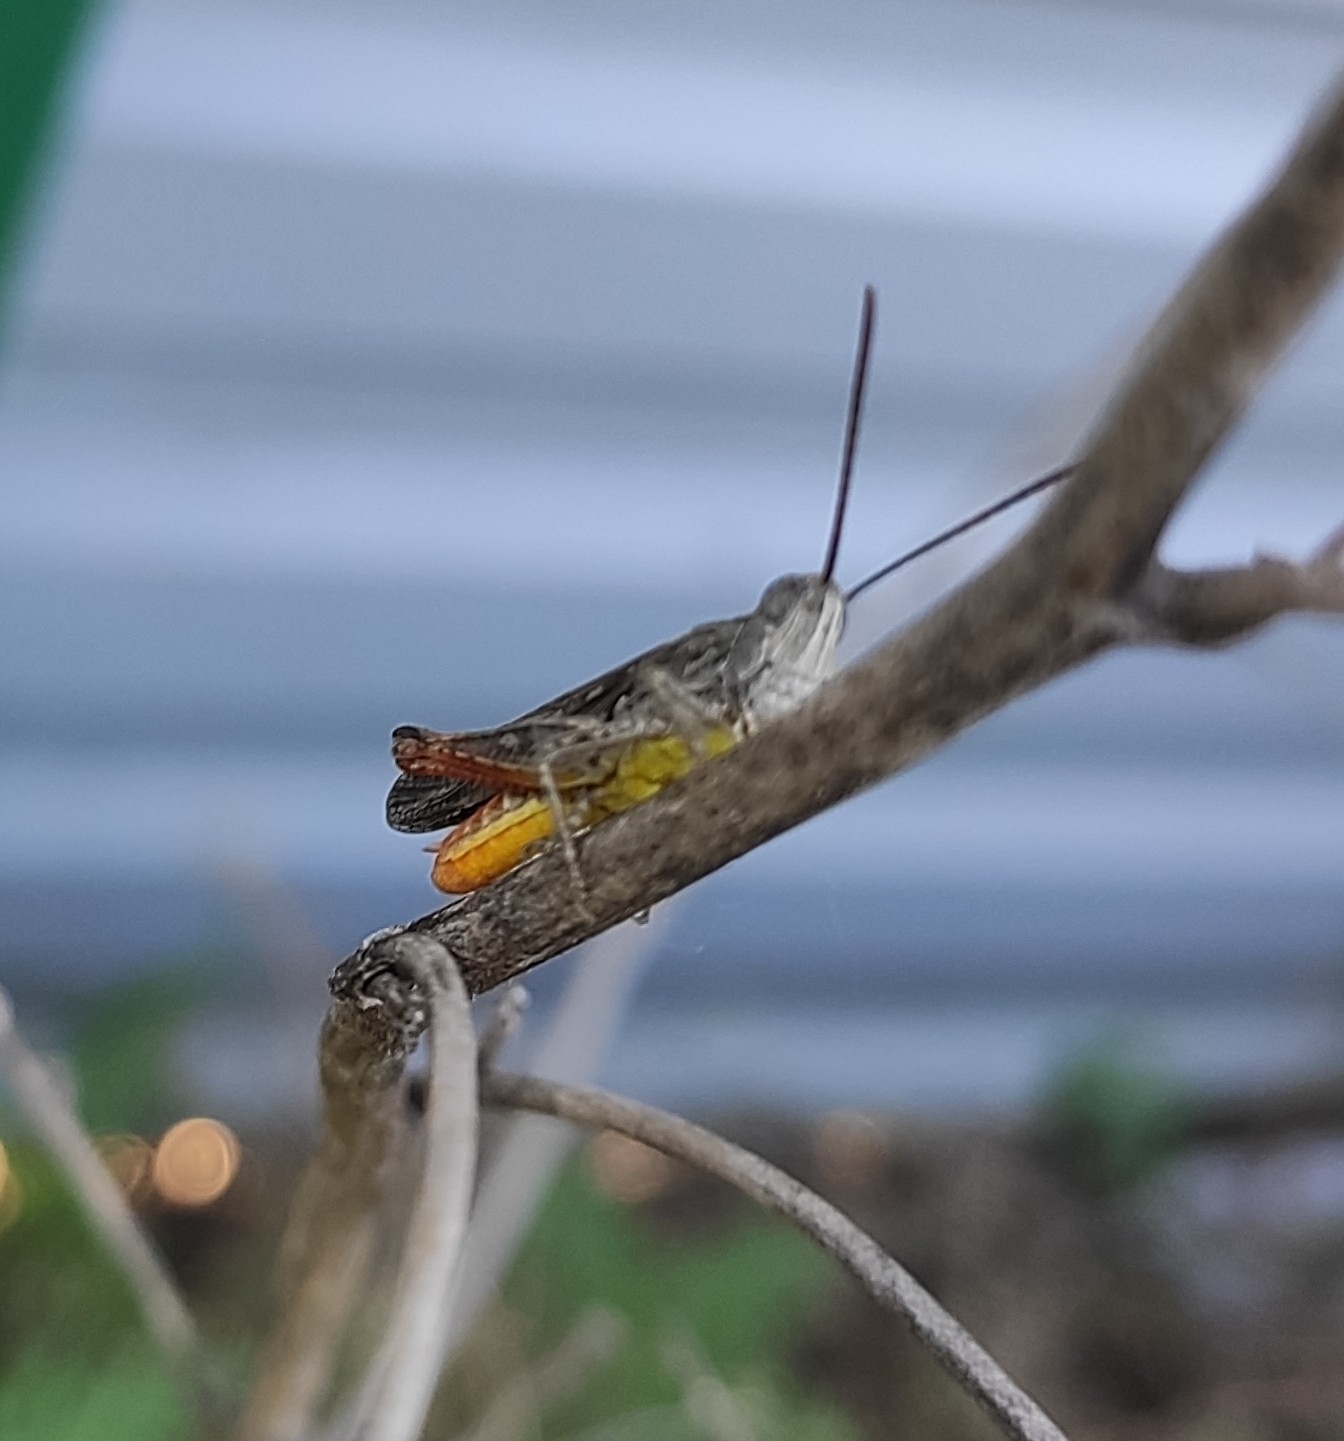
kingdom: Animalia
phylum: Arthropoda
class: Insecta
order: Orthoptera
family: Acrididae
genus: Chorthippus
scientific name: Chorthippus brunneus
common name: Field grasshopper
